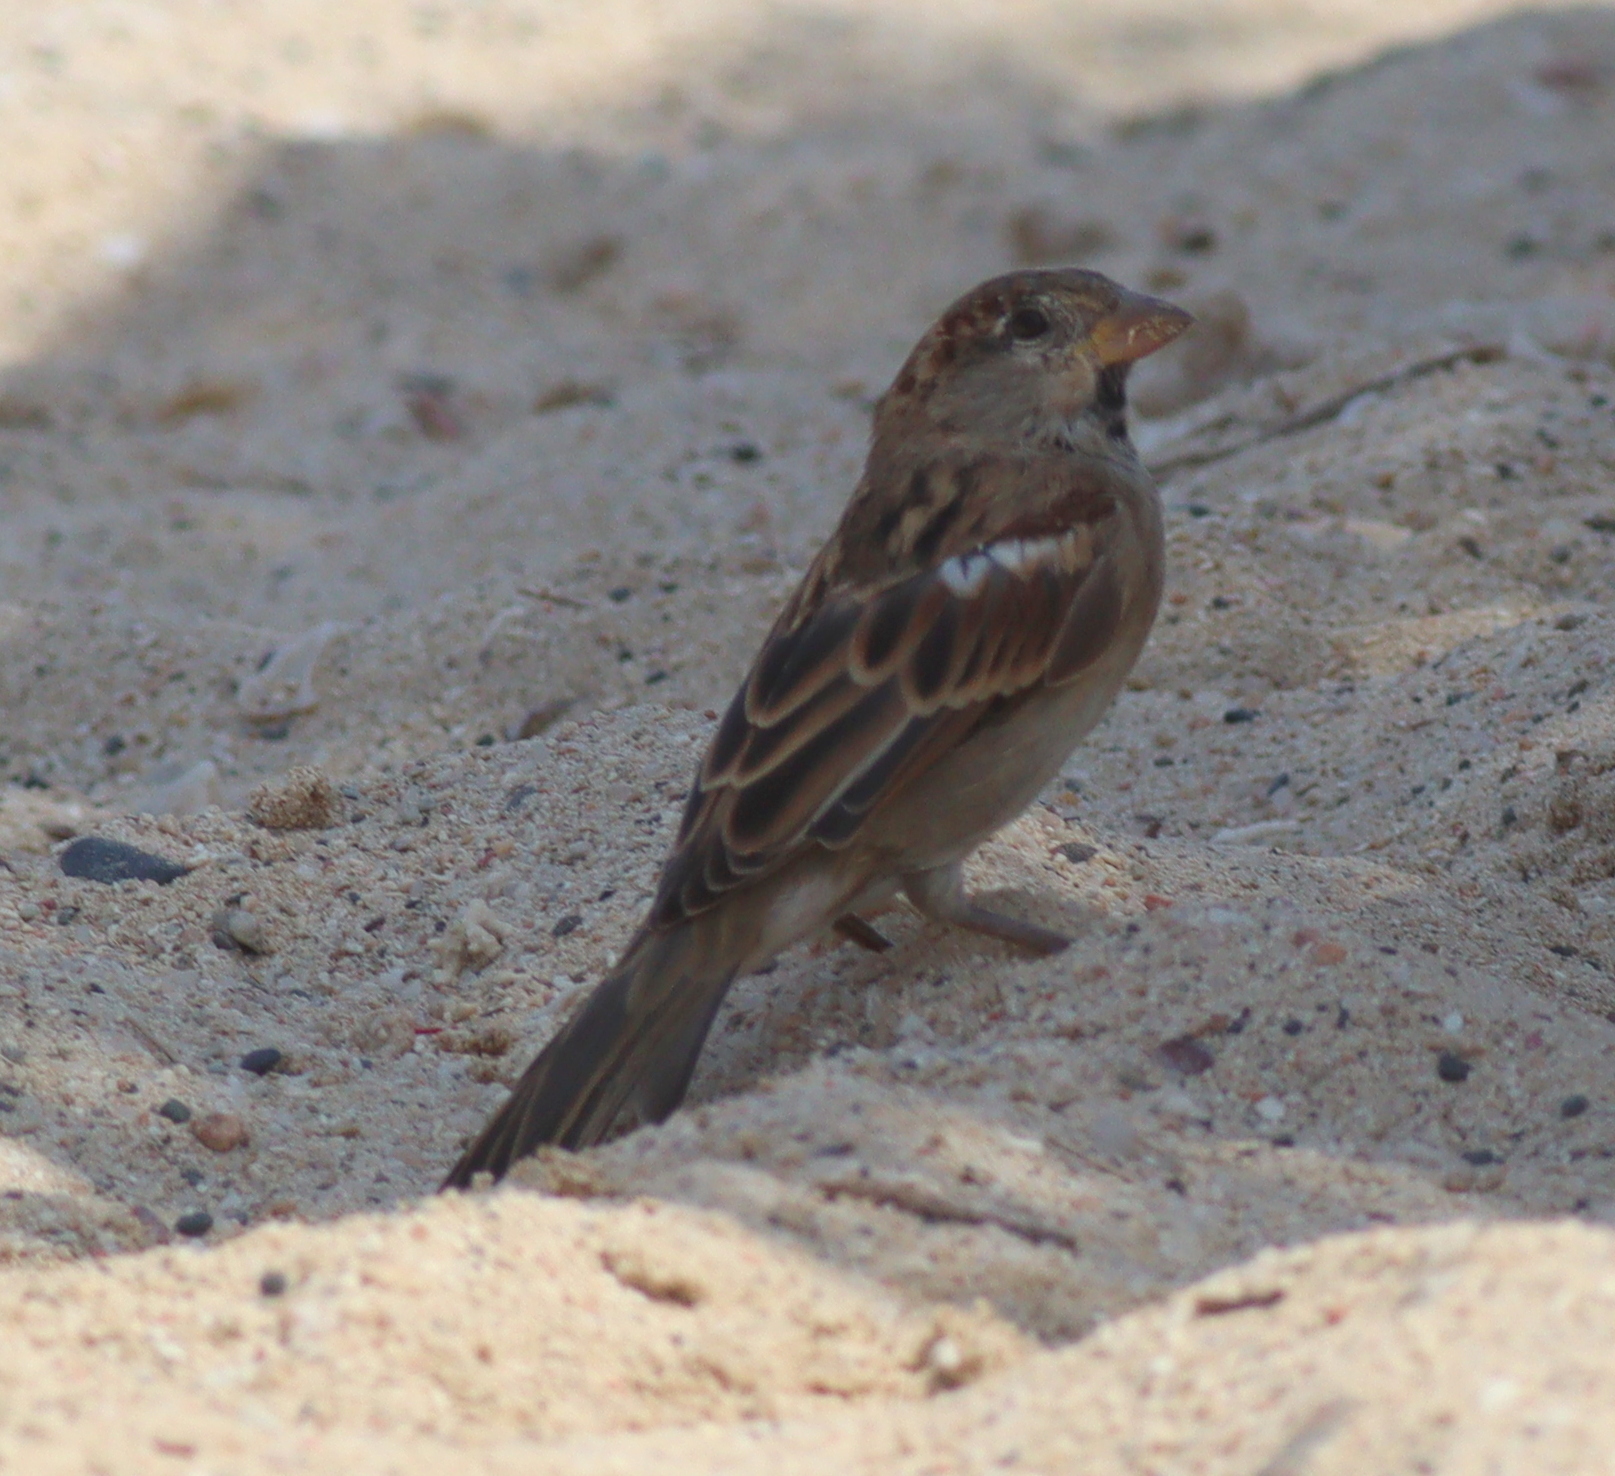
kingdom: Animalia
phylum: Chordata
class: Aves
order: Passeriformes
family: Passeridae
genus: Passer
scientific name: Passer domesticus
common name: House sparrow
